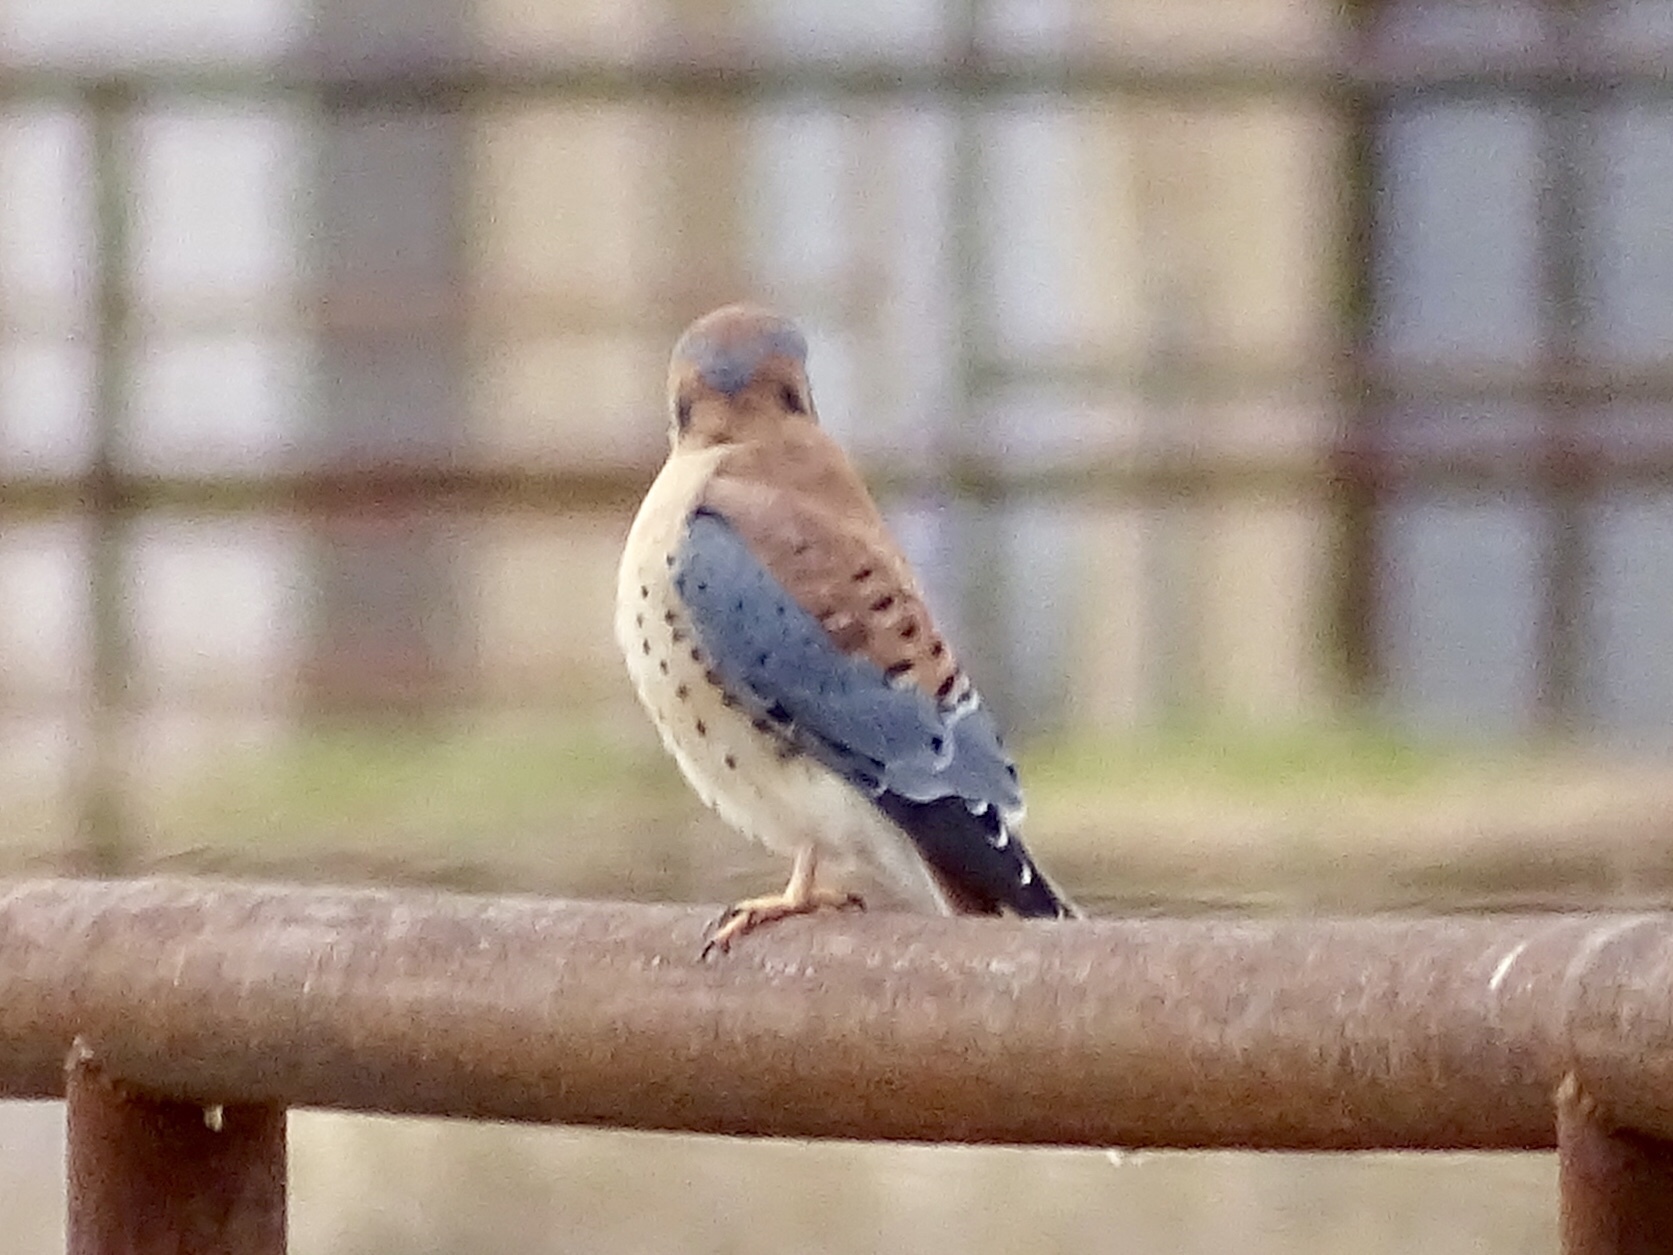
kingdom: Animalia
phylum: Chordata
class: Aves
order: Falconiformes
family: Falconidae
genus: Falco
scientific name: Falco sparverius
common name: American kestrel
